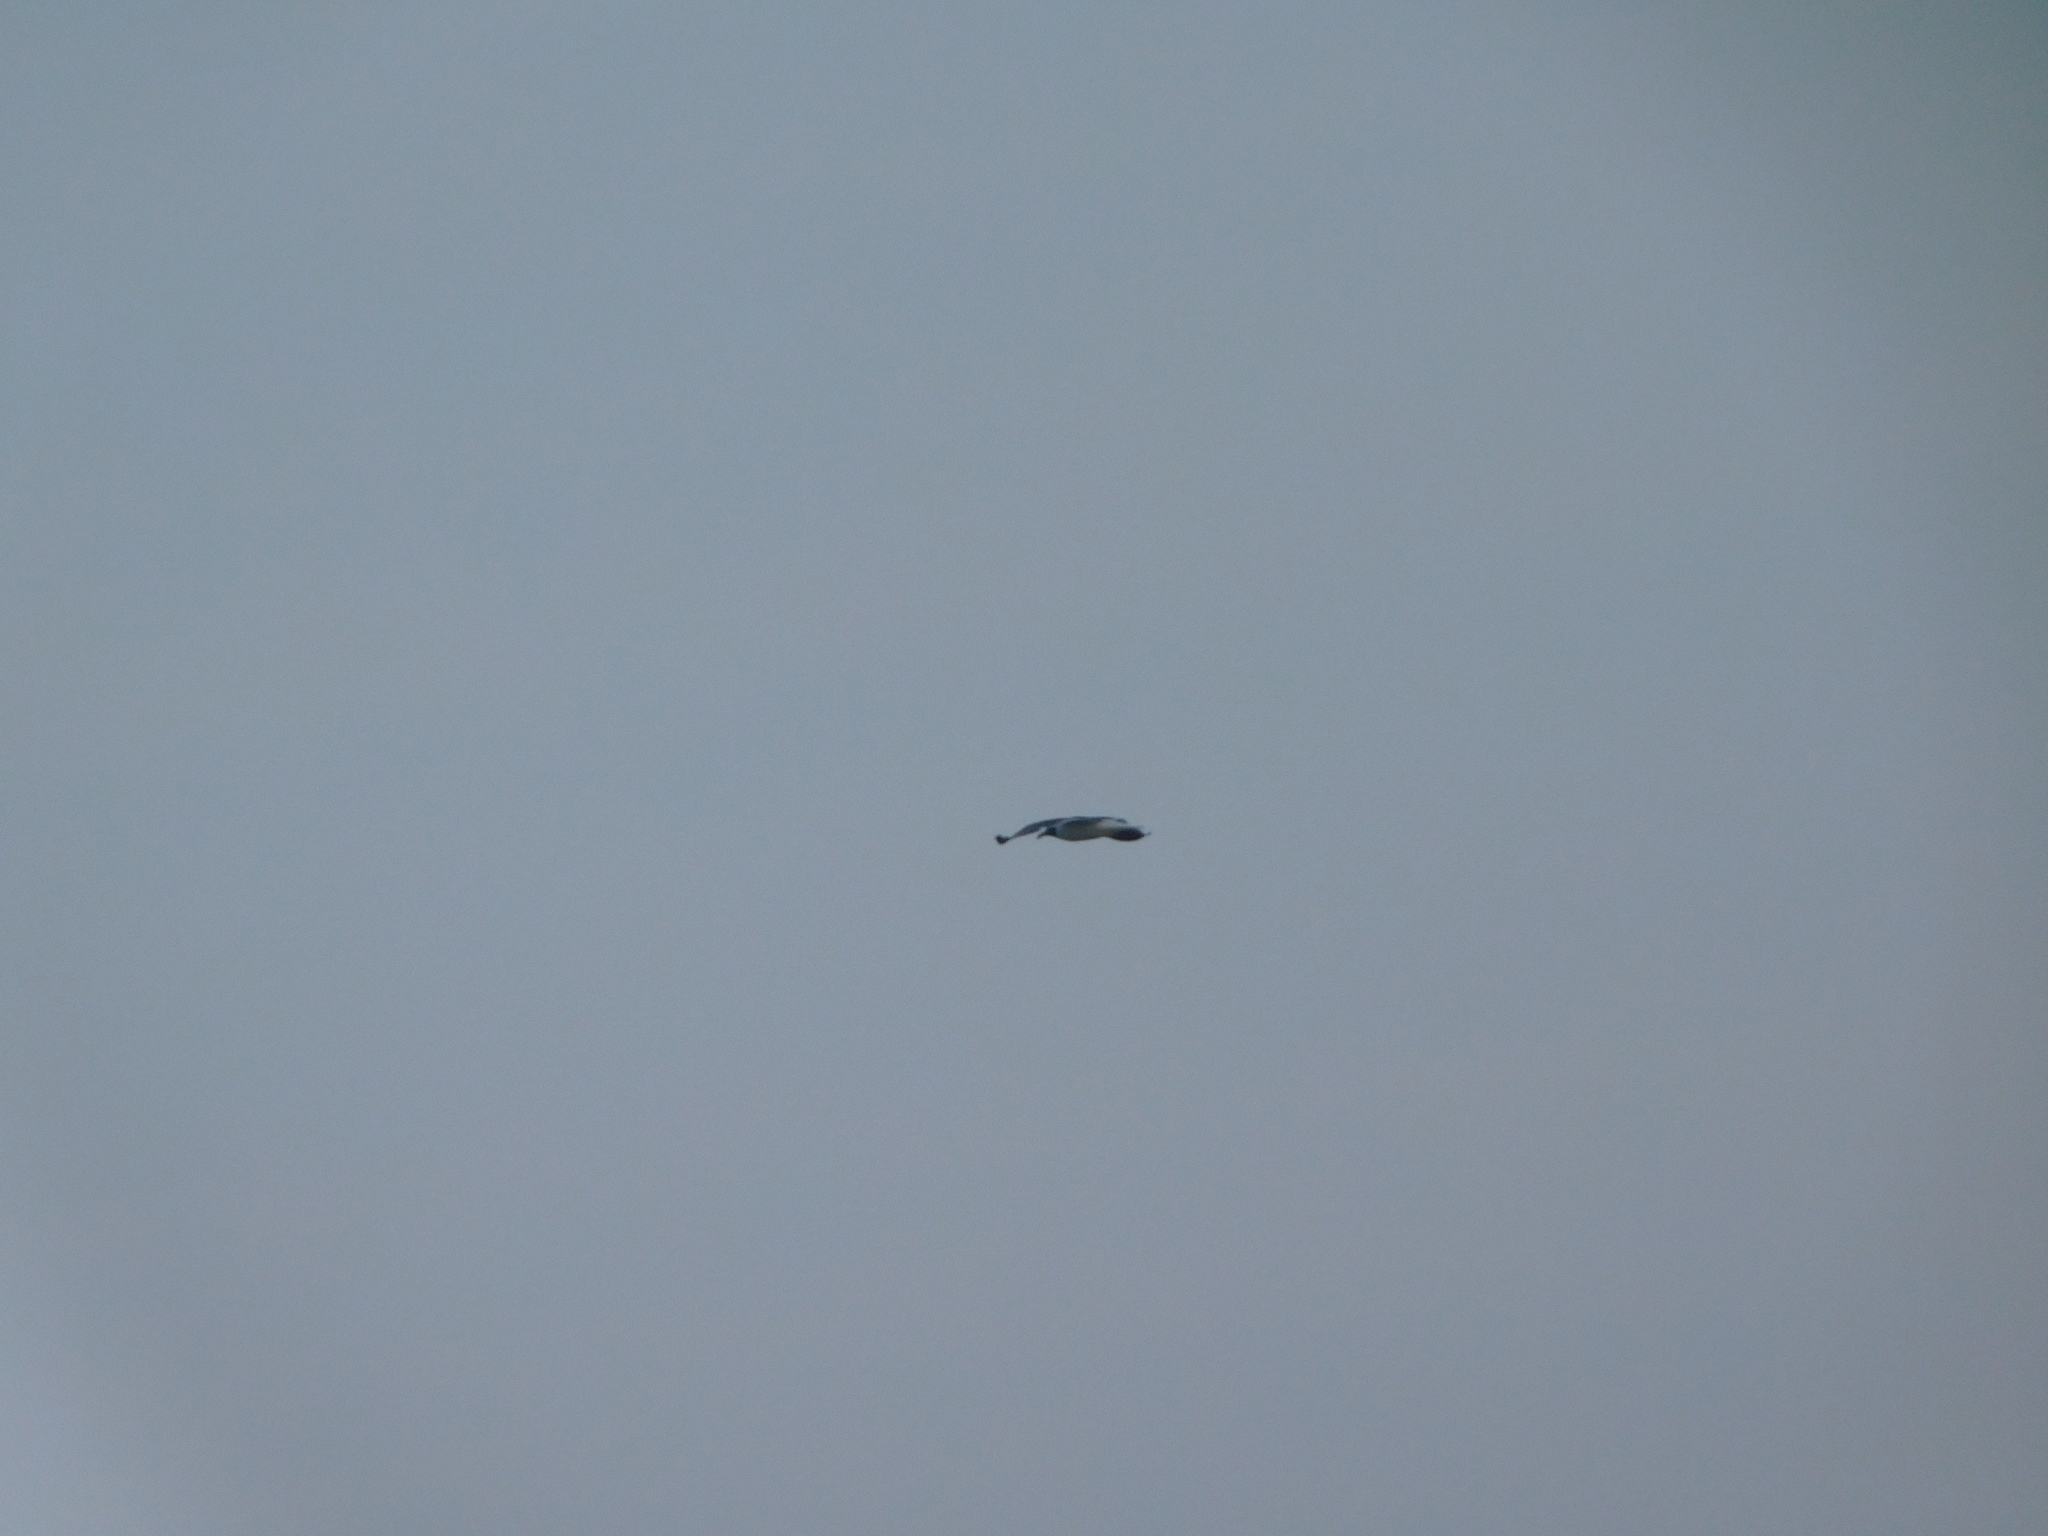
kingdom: Animalia
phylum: Chordata
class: Aves
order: Charadriiformes
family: Laridae
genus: Leucophaeus
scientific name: Leucophaeus atricilla
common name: Laughing gull
